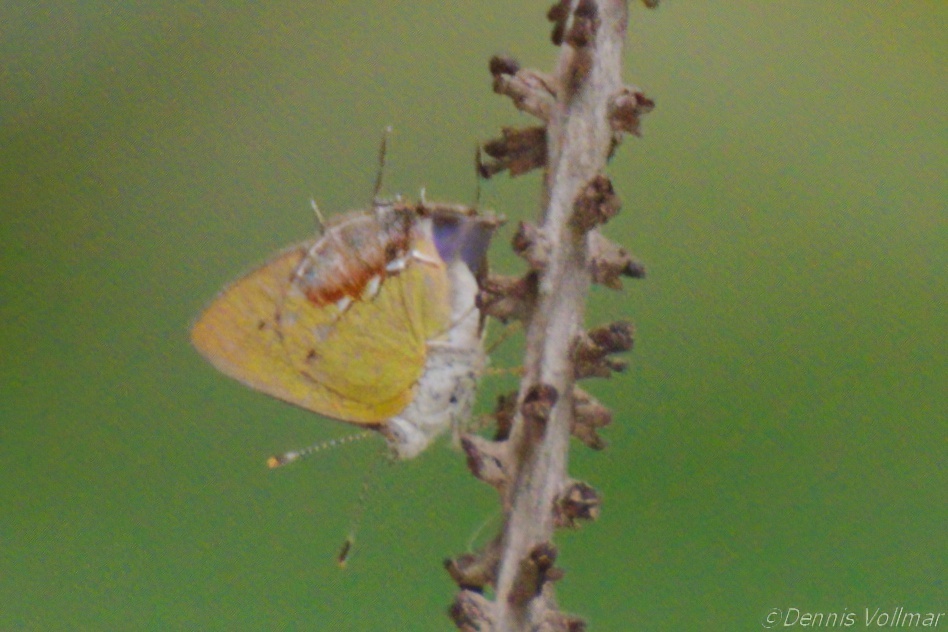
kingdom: Animalia
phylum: Arthropoda
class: Insecta
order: Lepidoptera
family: Lycaenidae
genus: Thecla
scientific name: Thecla maesites
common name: Verde azul hairstreak
